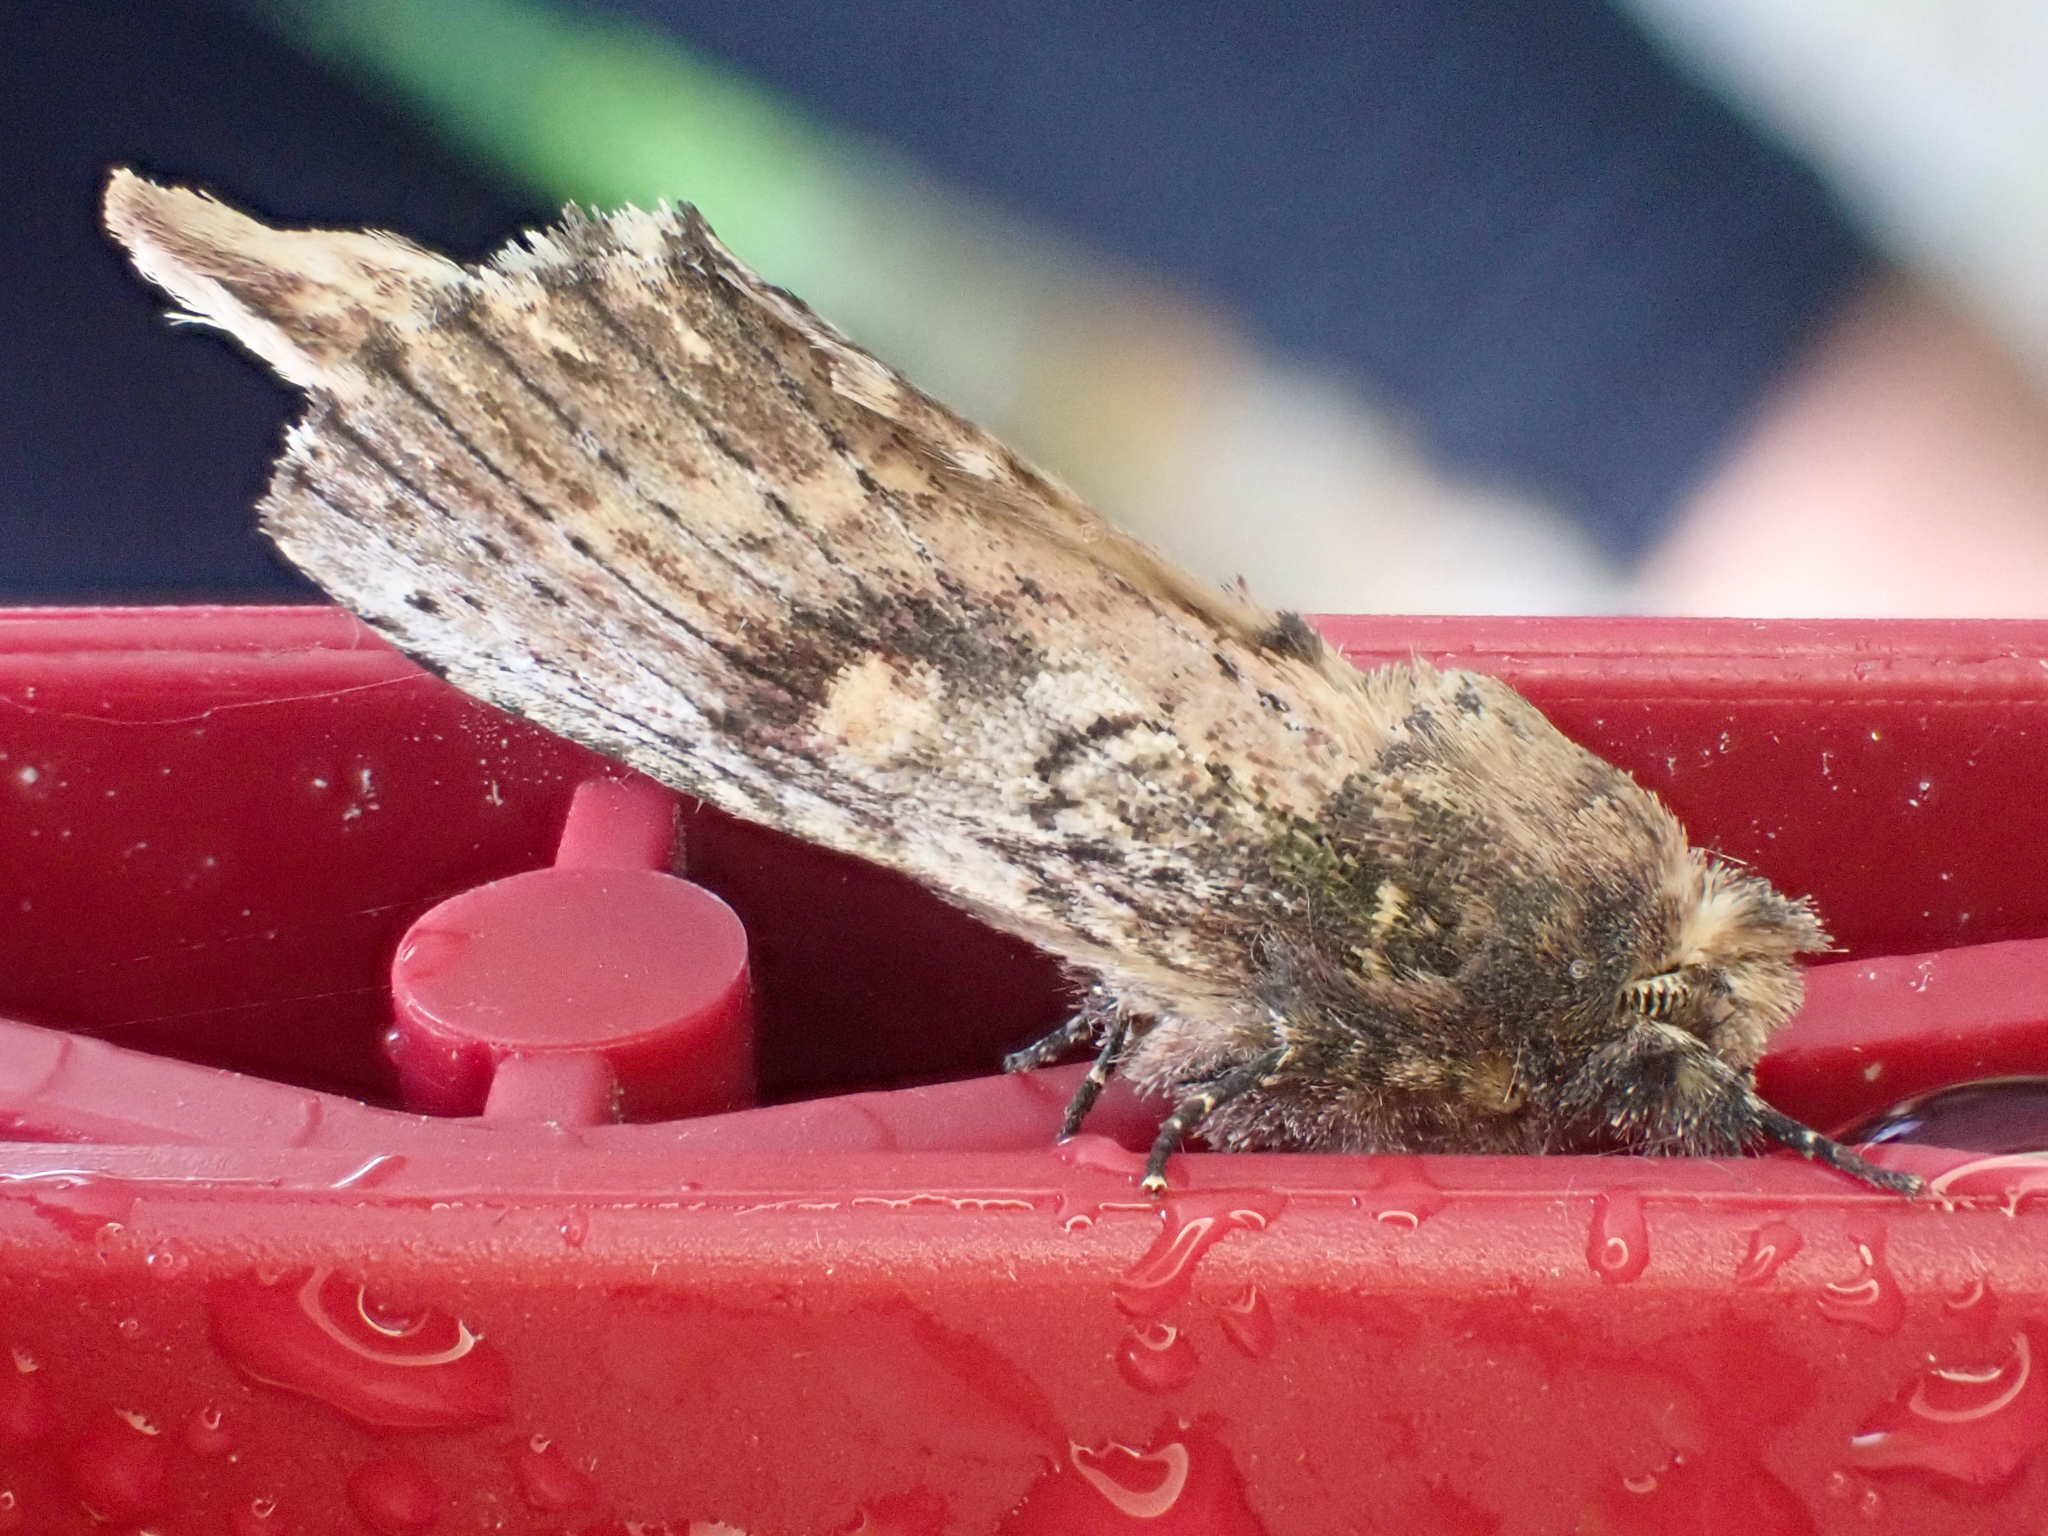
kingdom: Animalia
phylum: Arthropoda
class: Insecta
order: Lepidoptera
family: Notodontidae
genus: Schizura
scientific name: Schizura ipomaeae
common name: Morning-glory prominent
